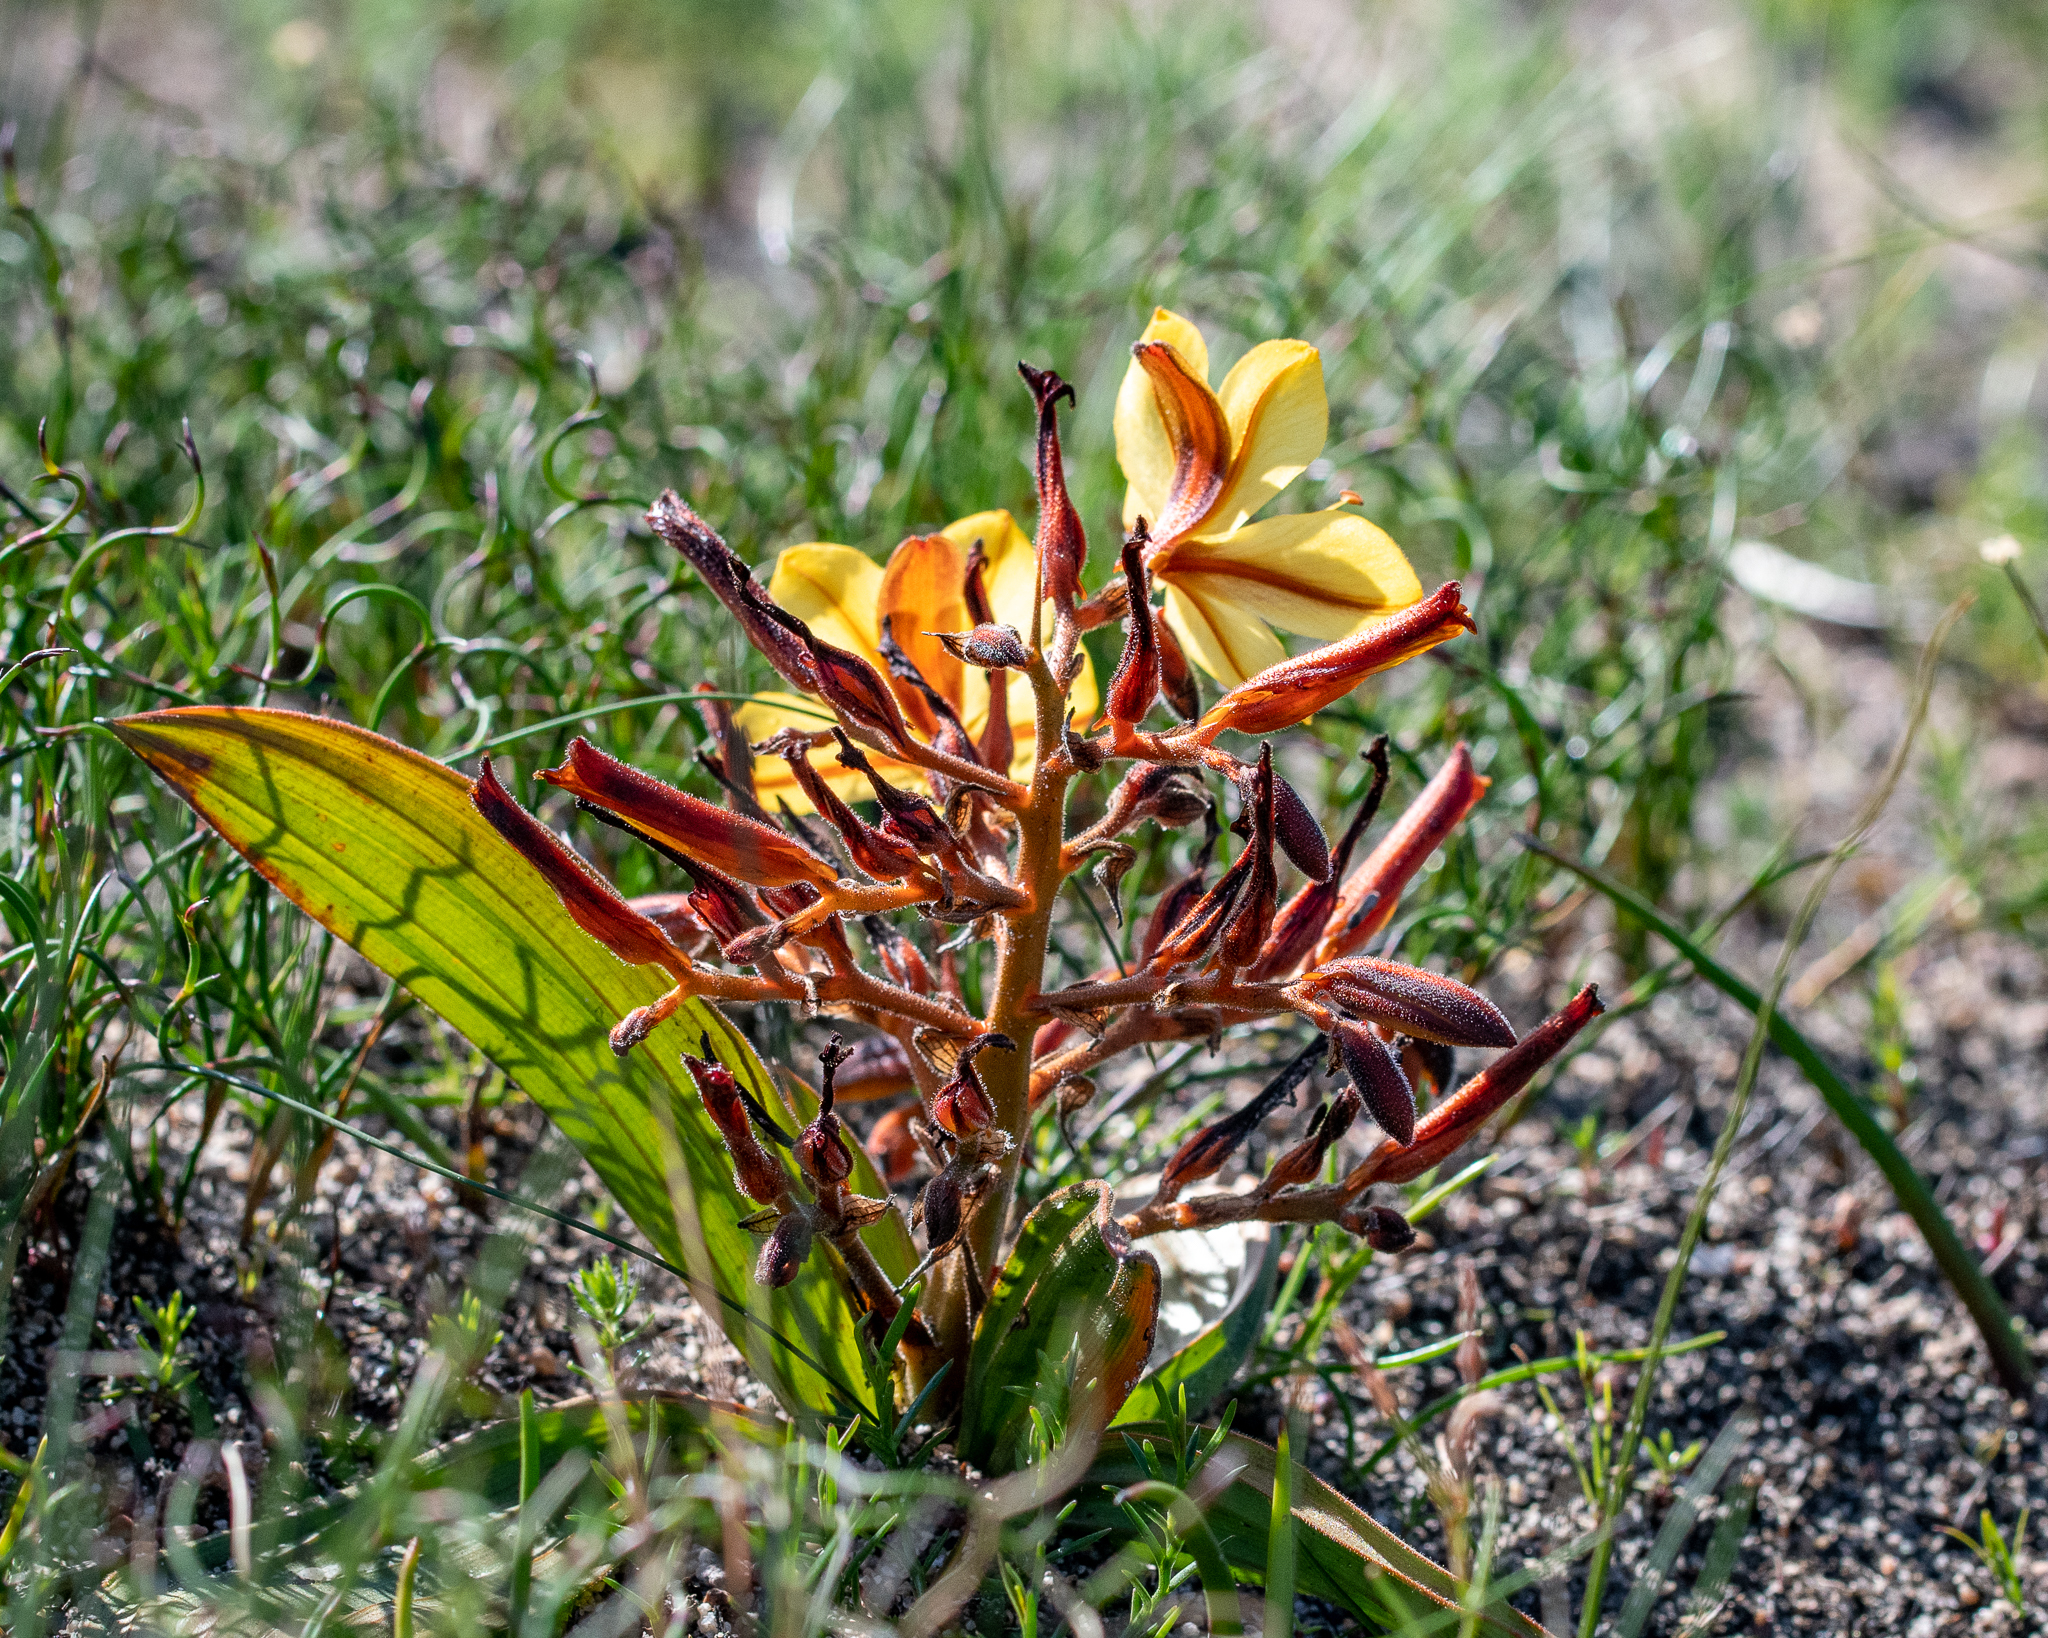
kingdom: Plantae
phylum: Tracheophyta
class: Liliopsida
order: Commelinales
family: Haemodoraceae
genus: Wachendorfia
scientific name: Wachendorfia paniculata
